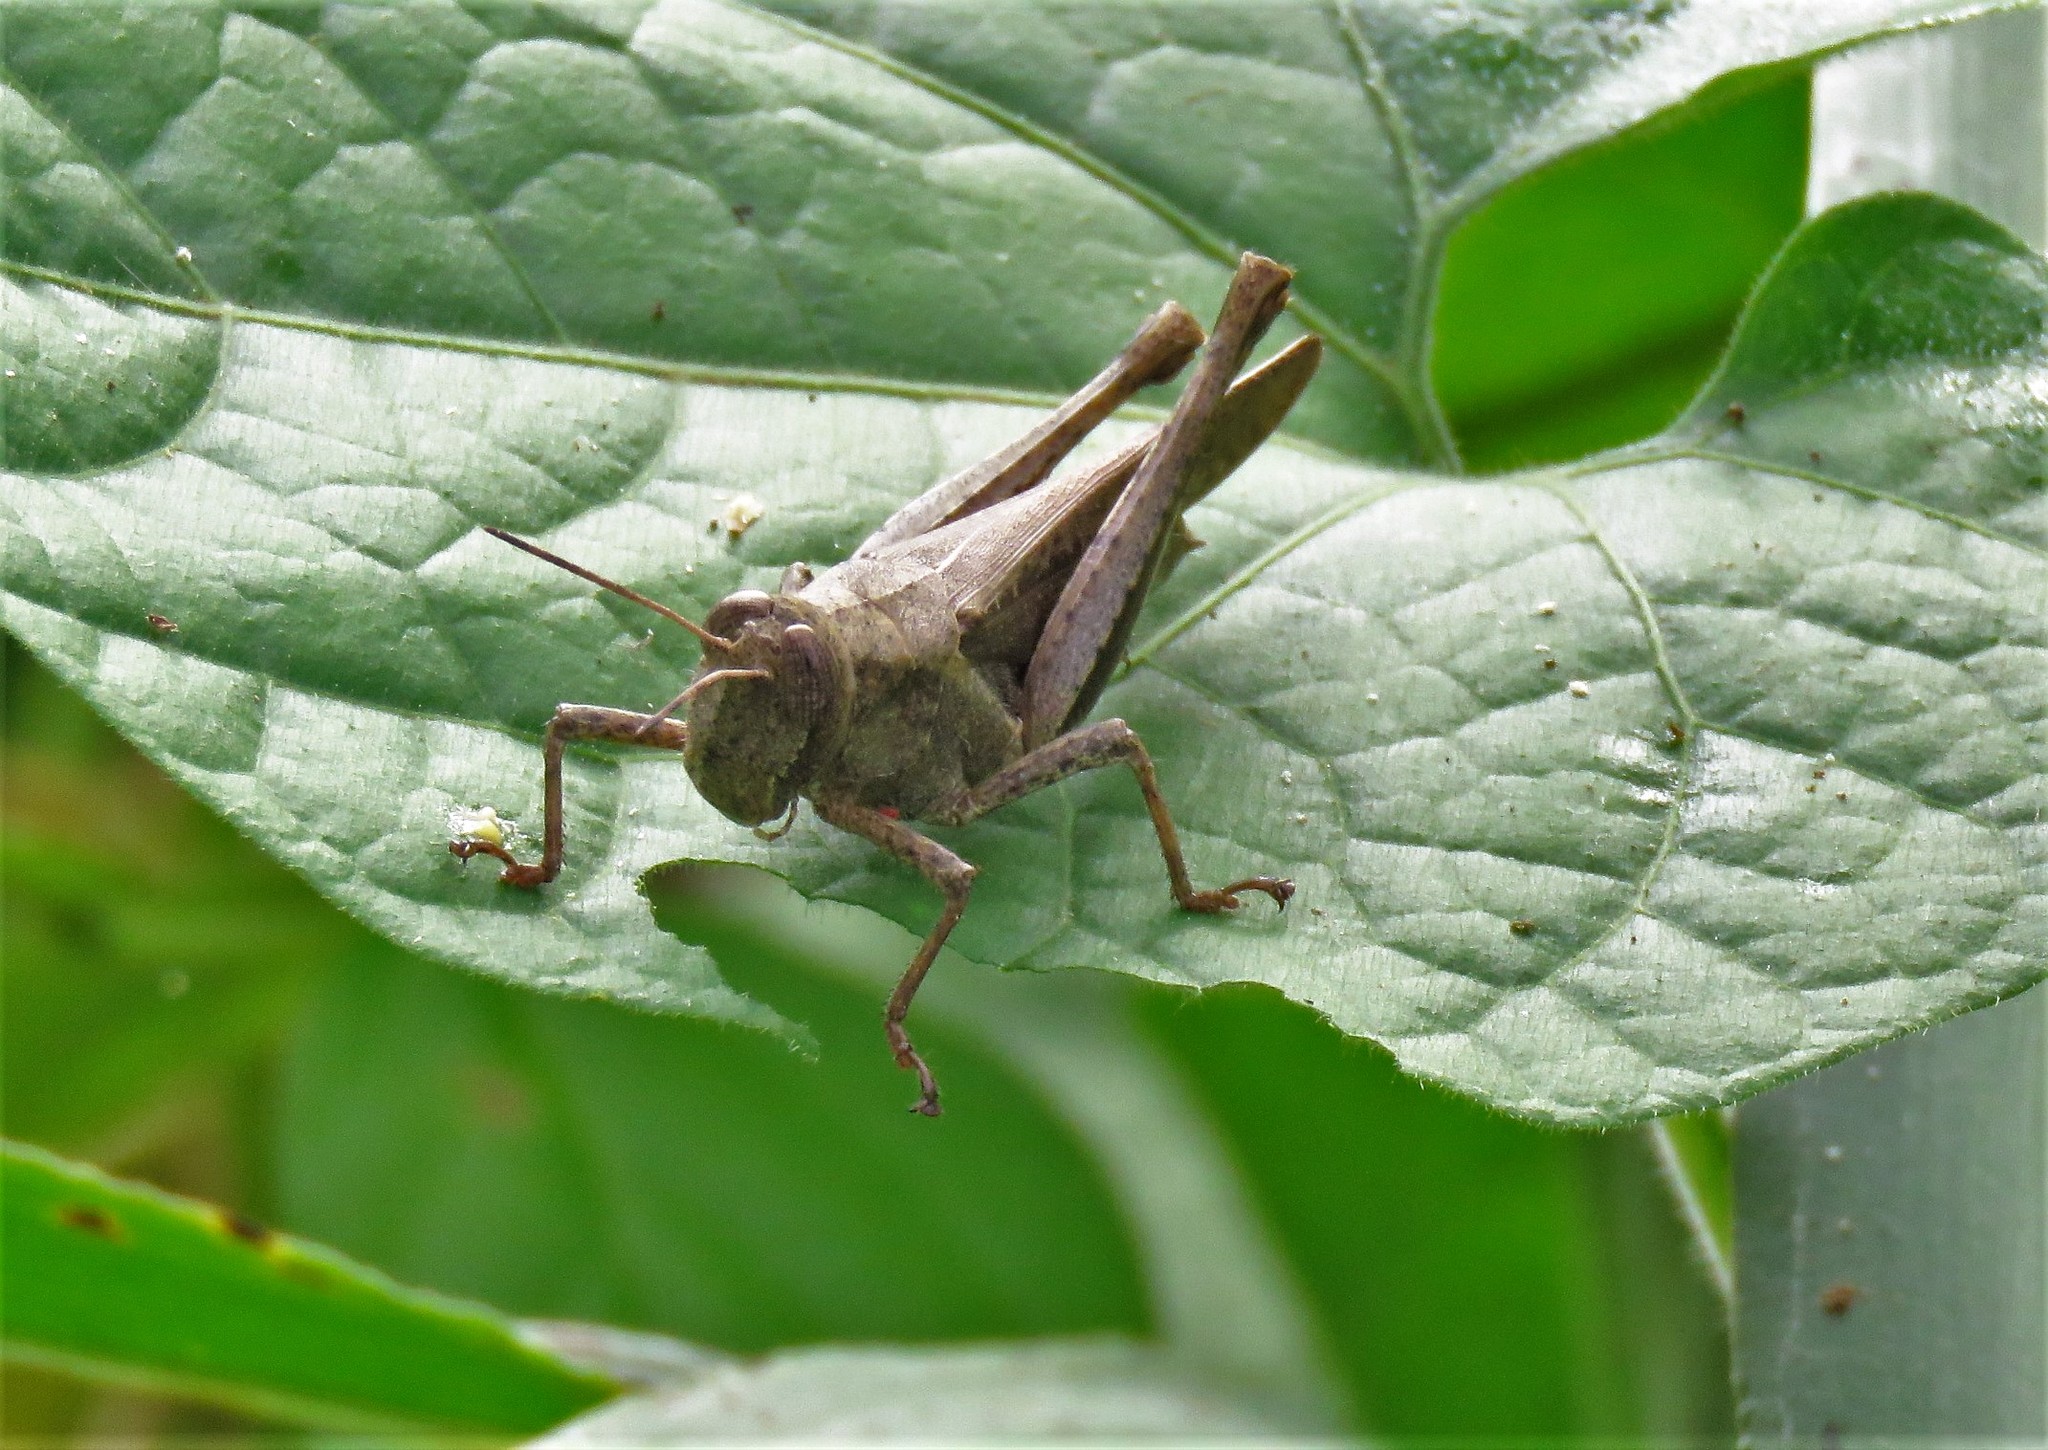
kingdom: Animalia
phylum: Arthropoda
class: Insecta
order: Orthoptera
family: Acrididae
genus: Abracris
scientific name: Abracris flavolineata
